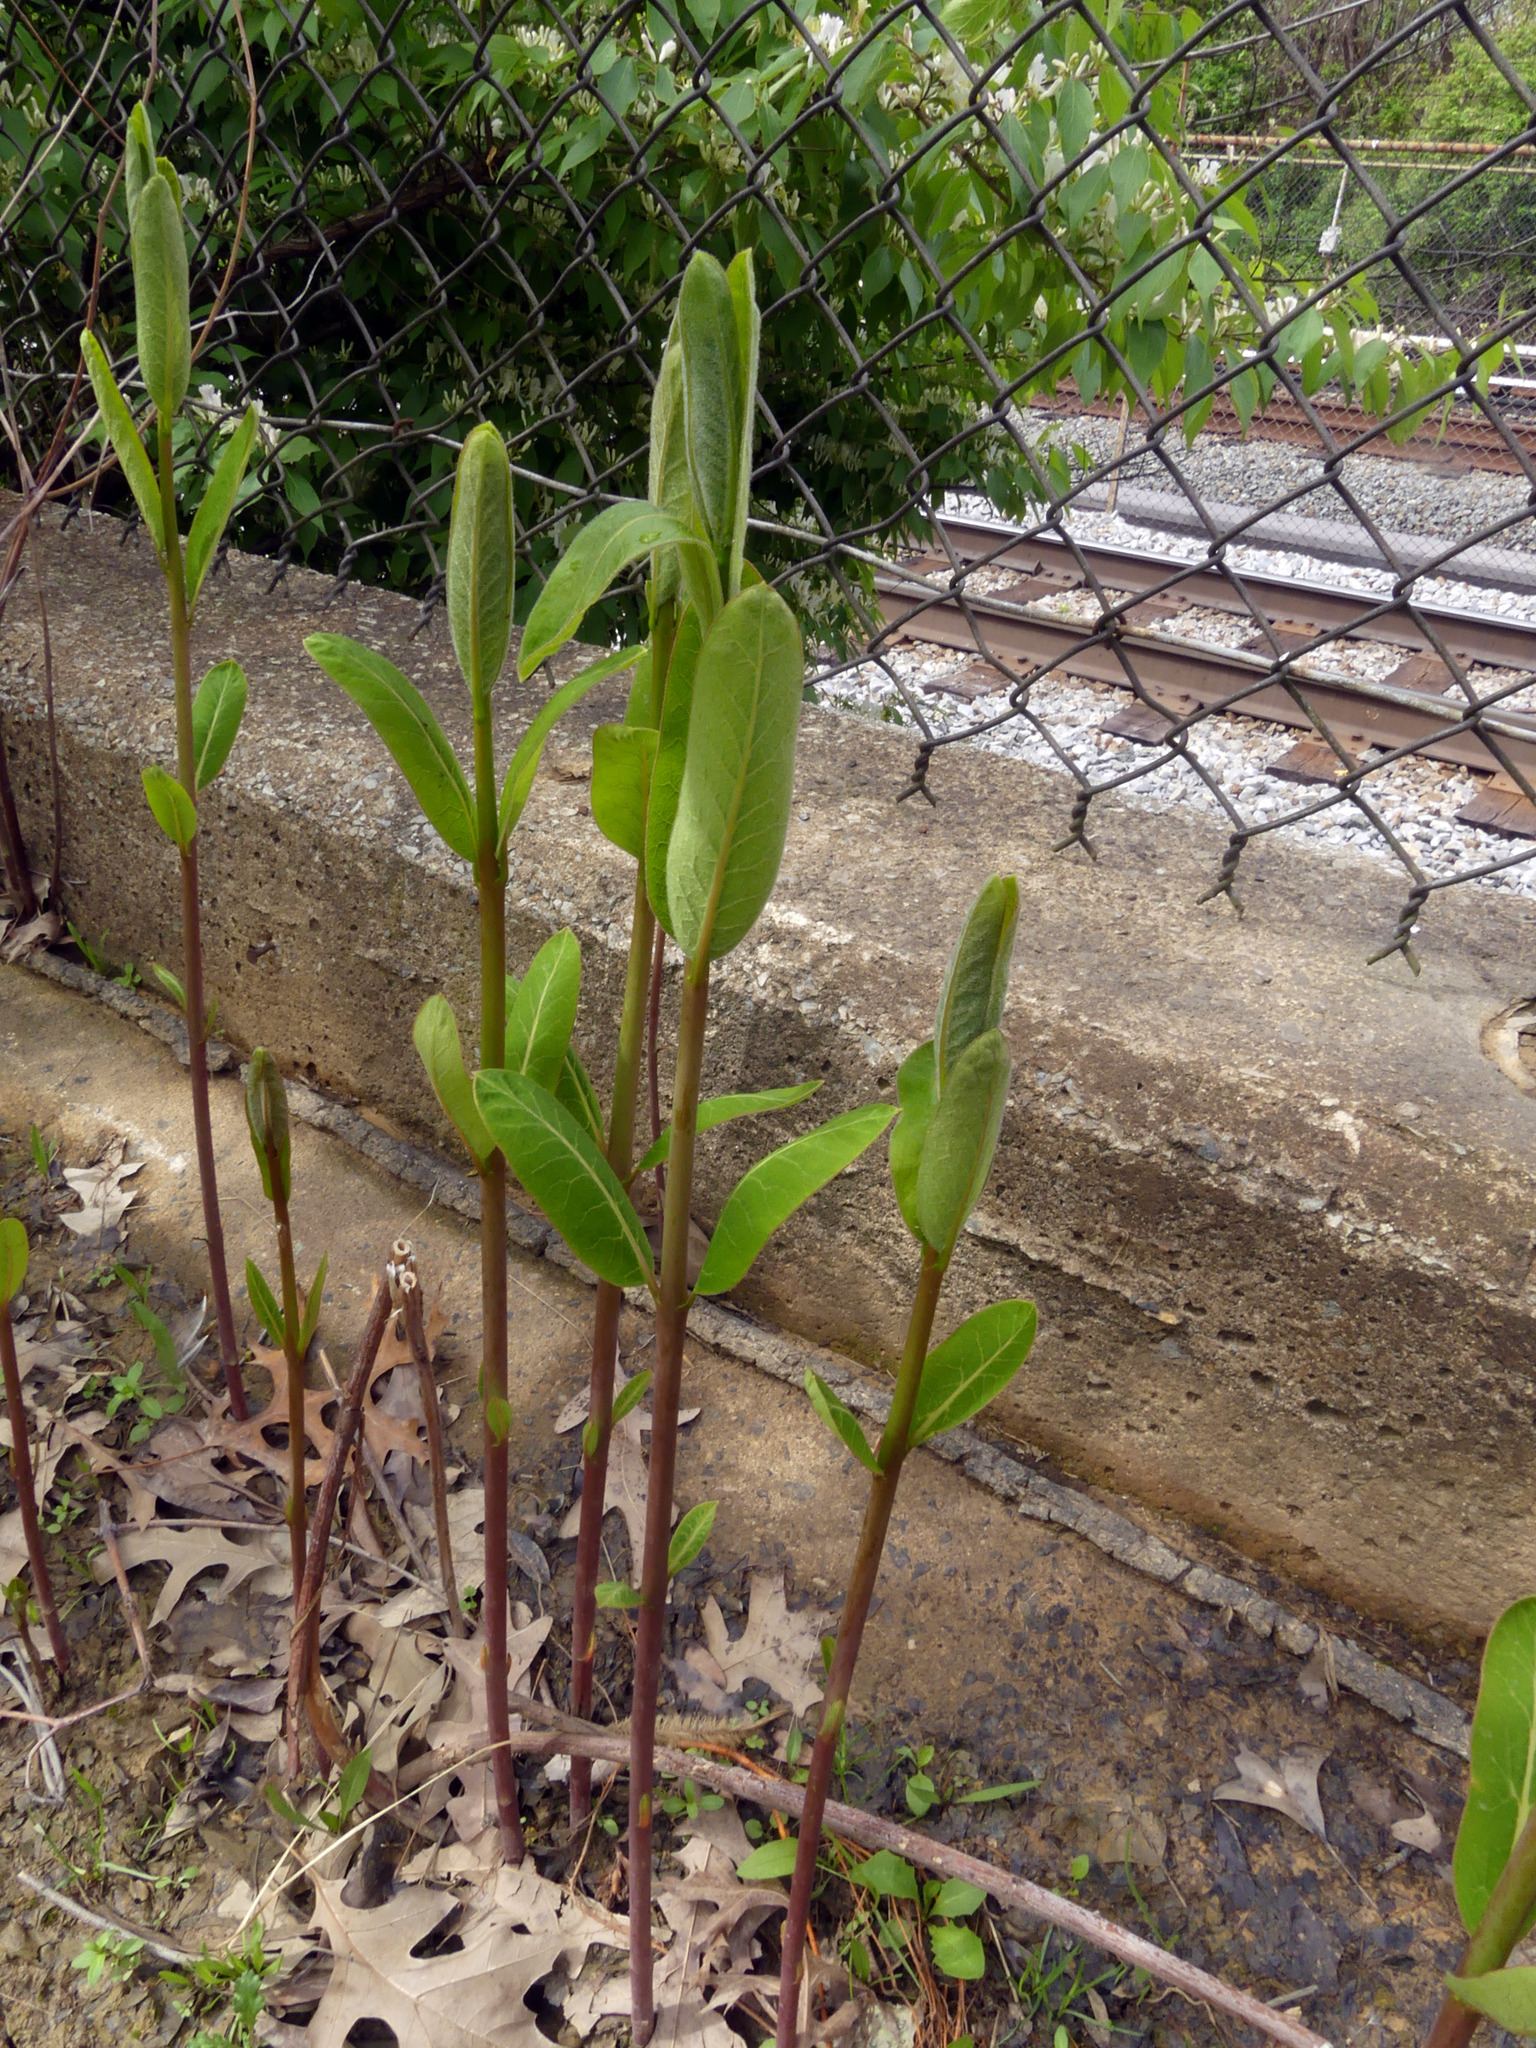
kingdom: Plantae
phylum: Tracheophyta
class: Magnoliopsida
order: Gentianales
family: Apocynaceae
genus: Apocynum
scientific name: Apocynum cannabinum
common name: Hemp dogbane
